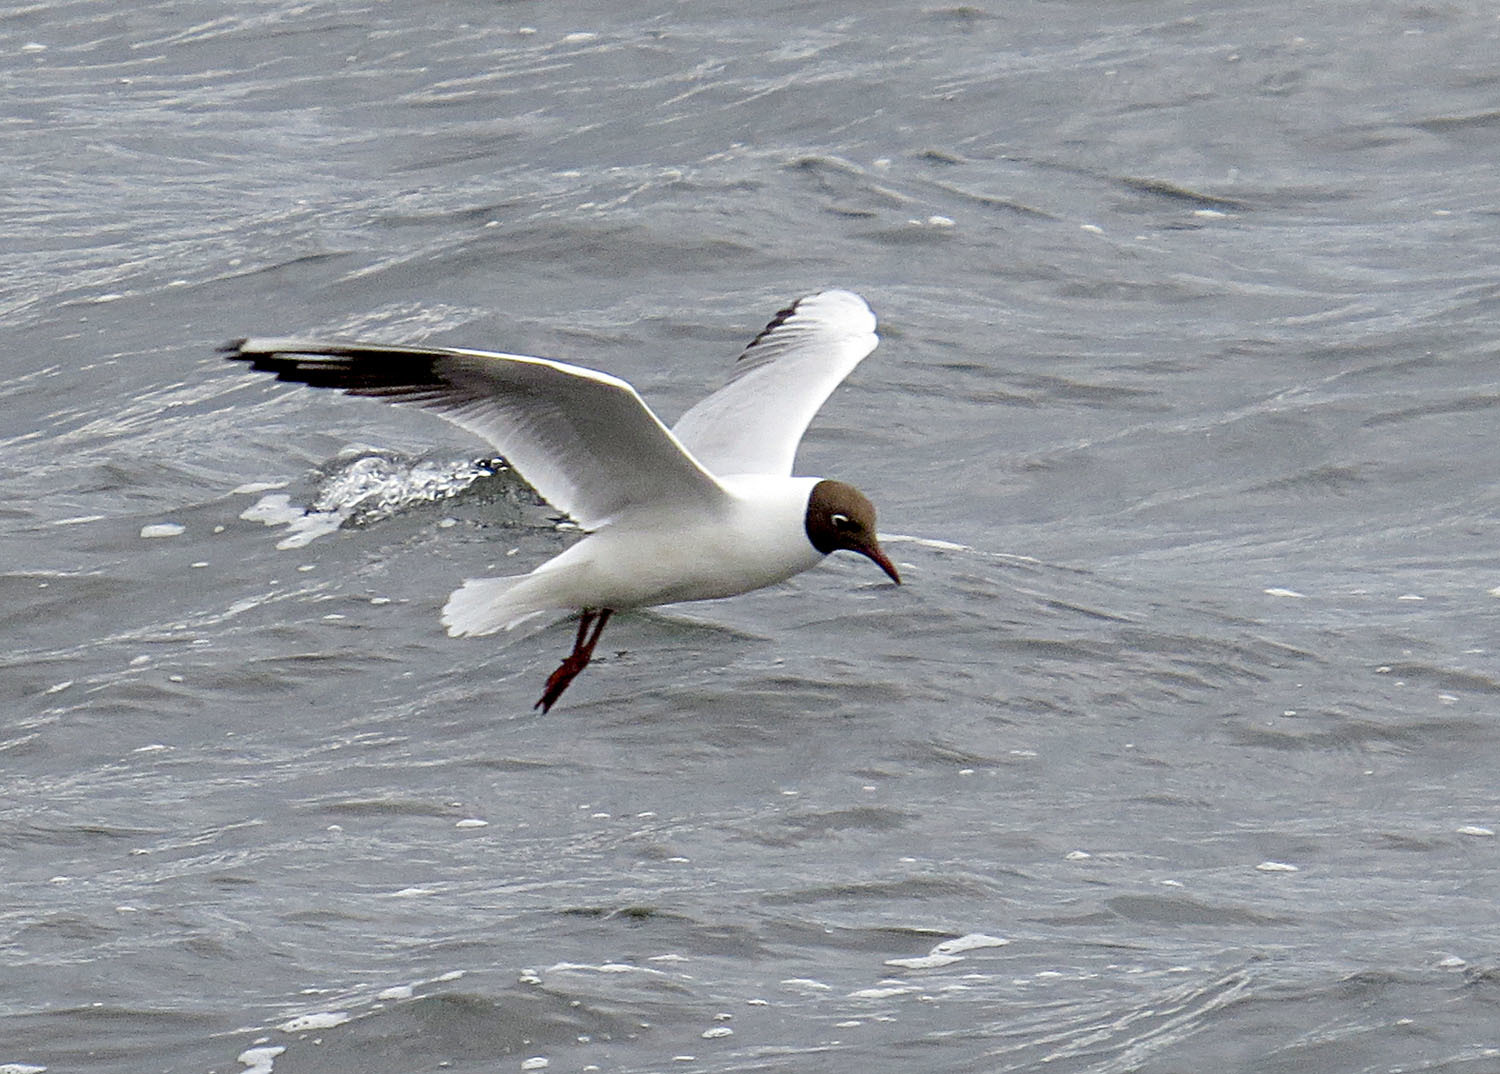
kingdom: Animalia
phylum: Chordata
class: Aves
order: Charadriiformes
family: Laridae
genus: Chroicocephalus
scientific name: Chroicocephalus ridibundus
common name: Black-headed gull
